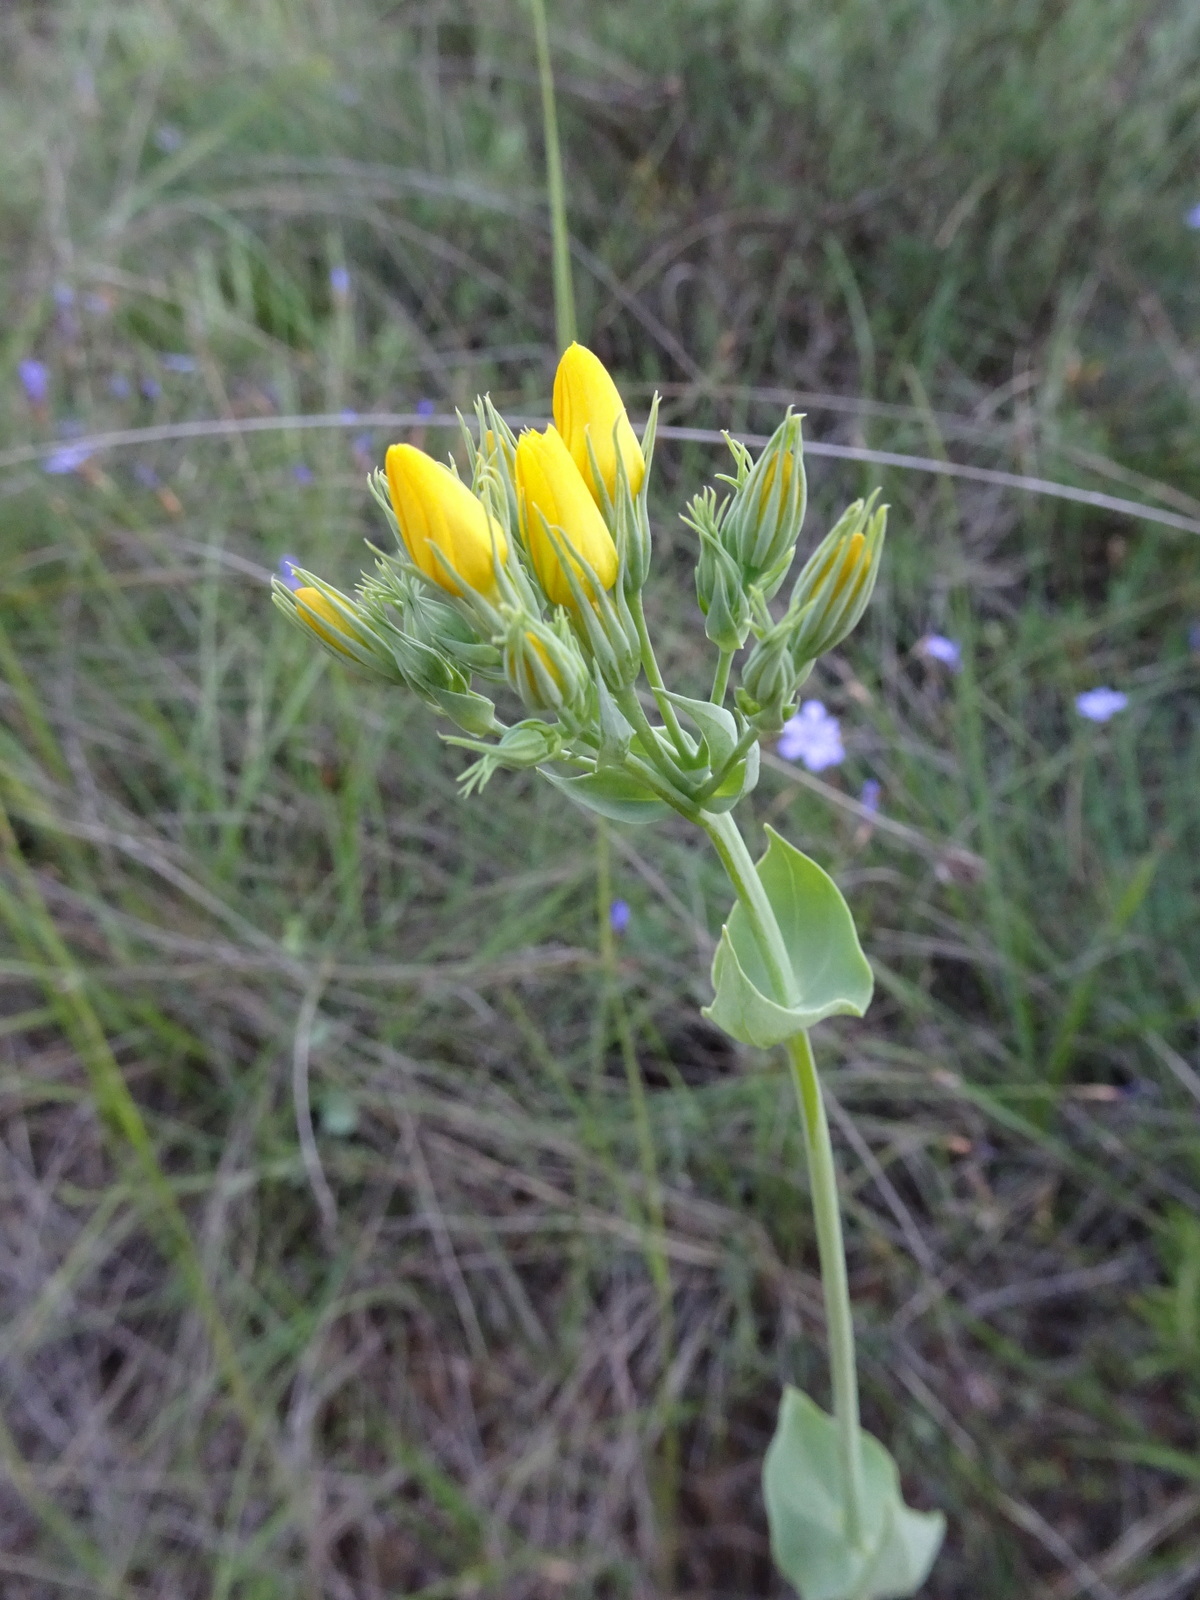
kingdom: Plantae
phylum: Tracheophyta
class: Magnoliopsida
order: Gentianales
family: Gentianaceae
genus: Blackstonia
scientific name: Blackstonia perfoliata
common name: Yellow-wort
